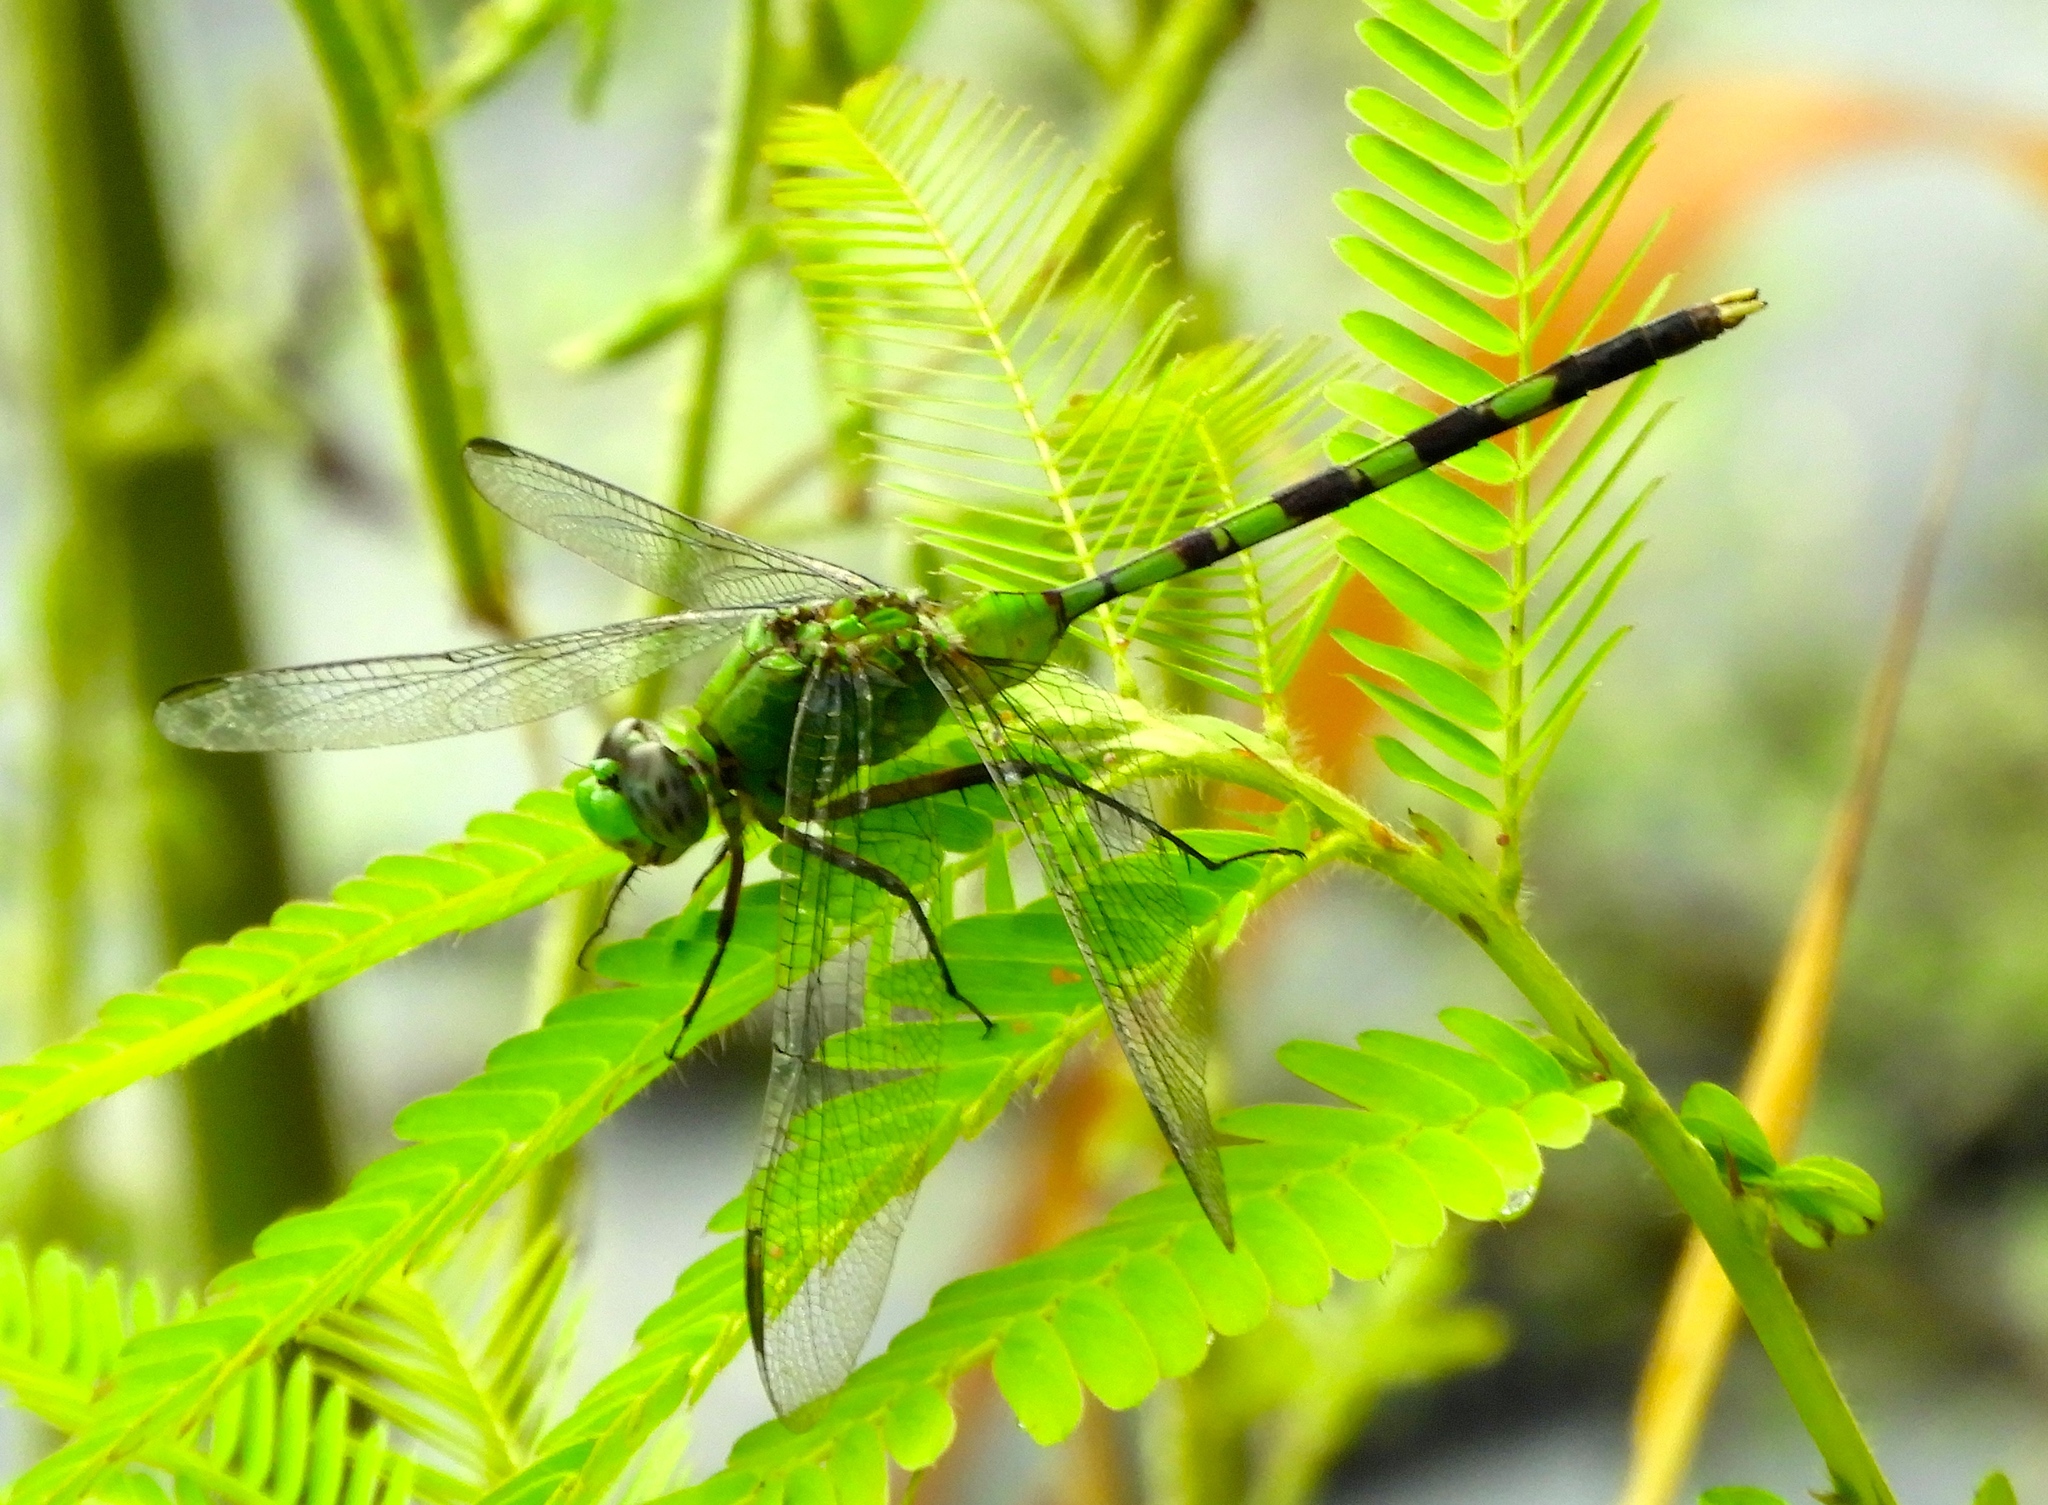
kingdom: Animalia
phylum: Arthropoda
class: Insecta
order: Odonata
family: Libellulidae
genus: Erythemis
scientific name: Erythemis vesiculosa
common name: Great pondhawk
